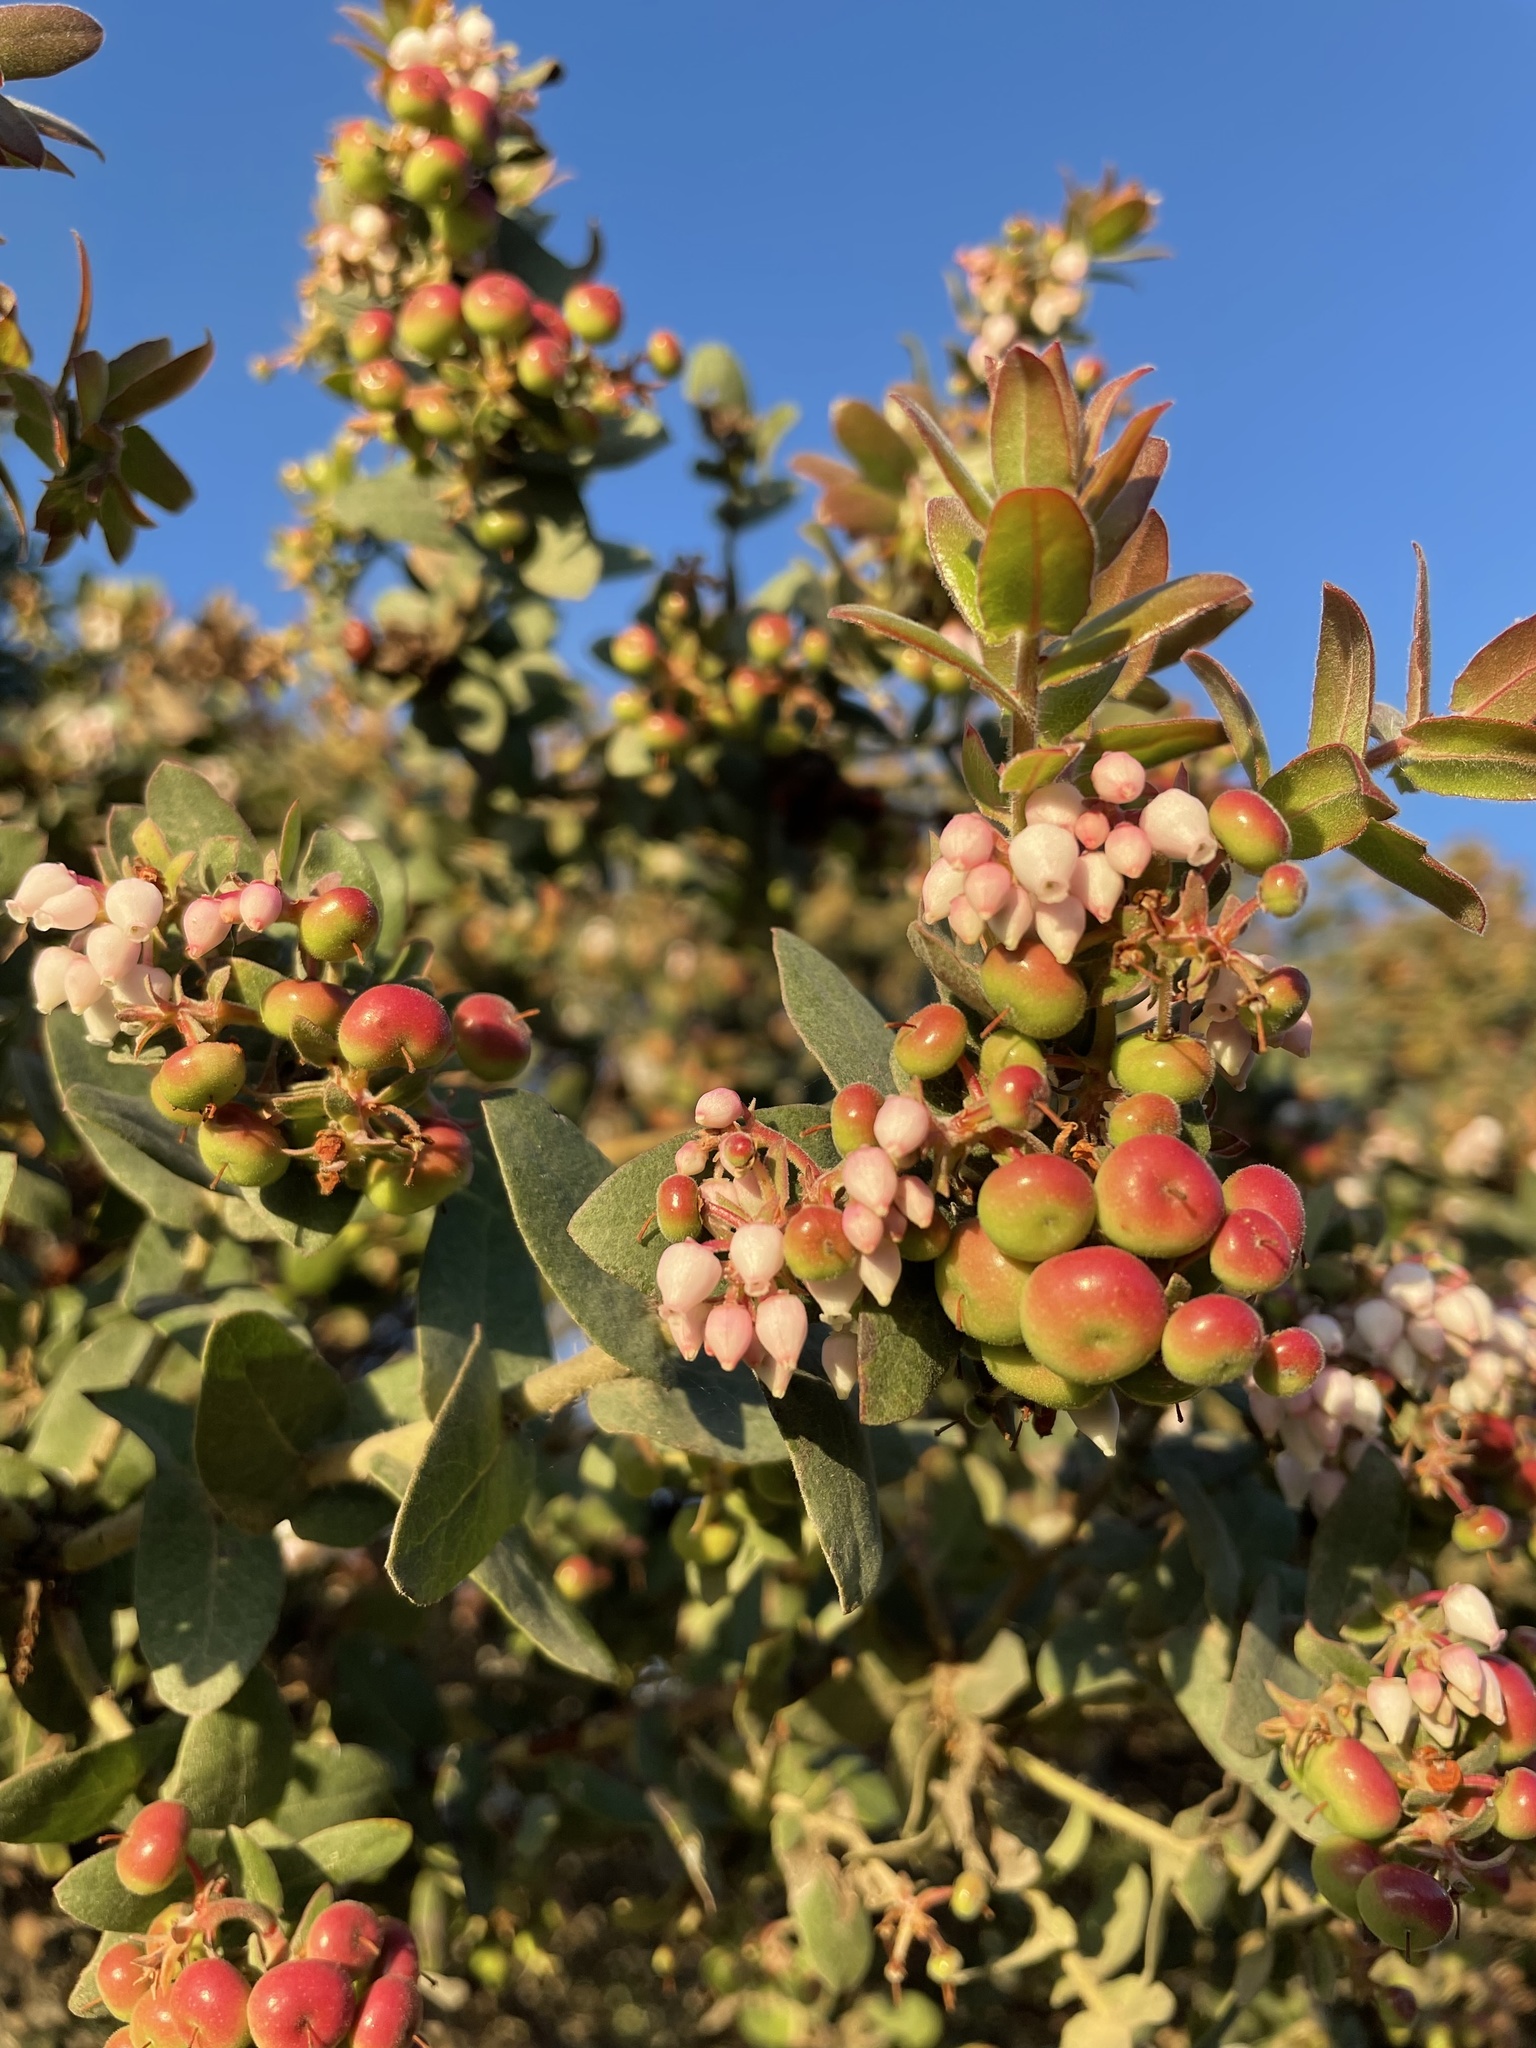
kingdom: Plantae
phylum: Tracheophyta
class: Magnoliopsida
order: Ericales
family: Ericaceae
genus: Arctostaphylos
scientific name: Arctostaphylos pajaroensis
